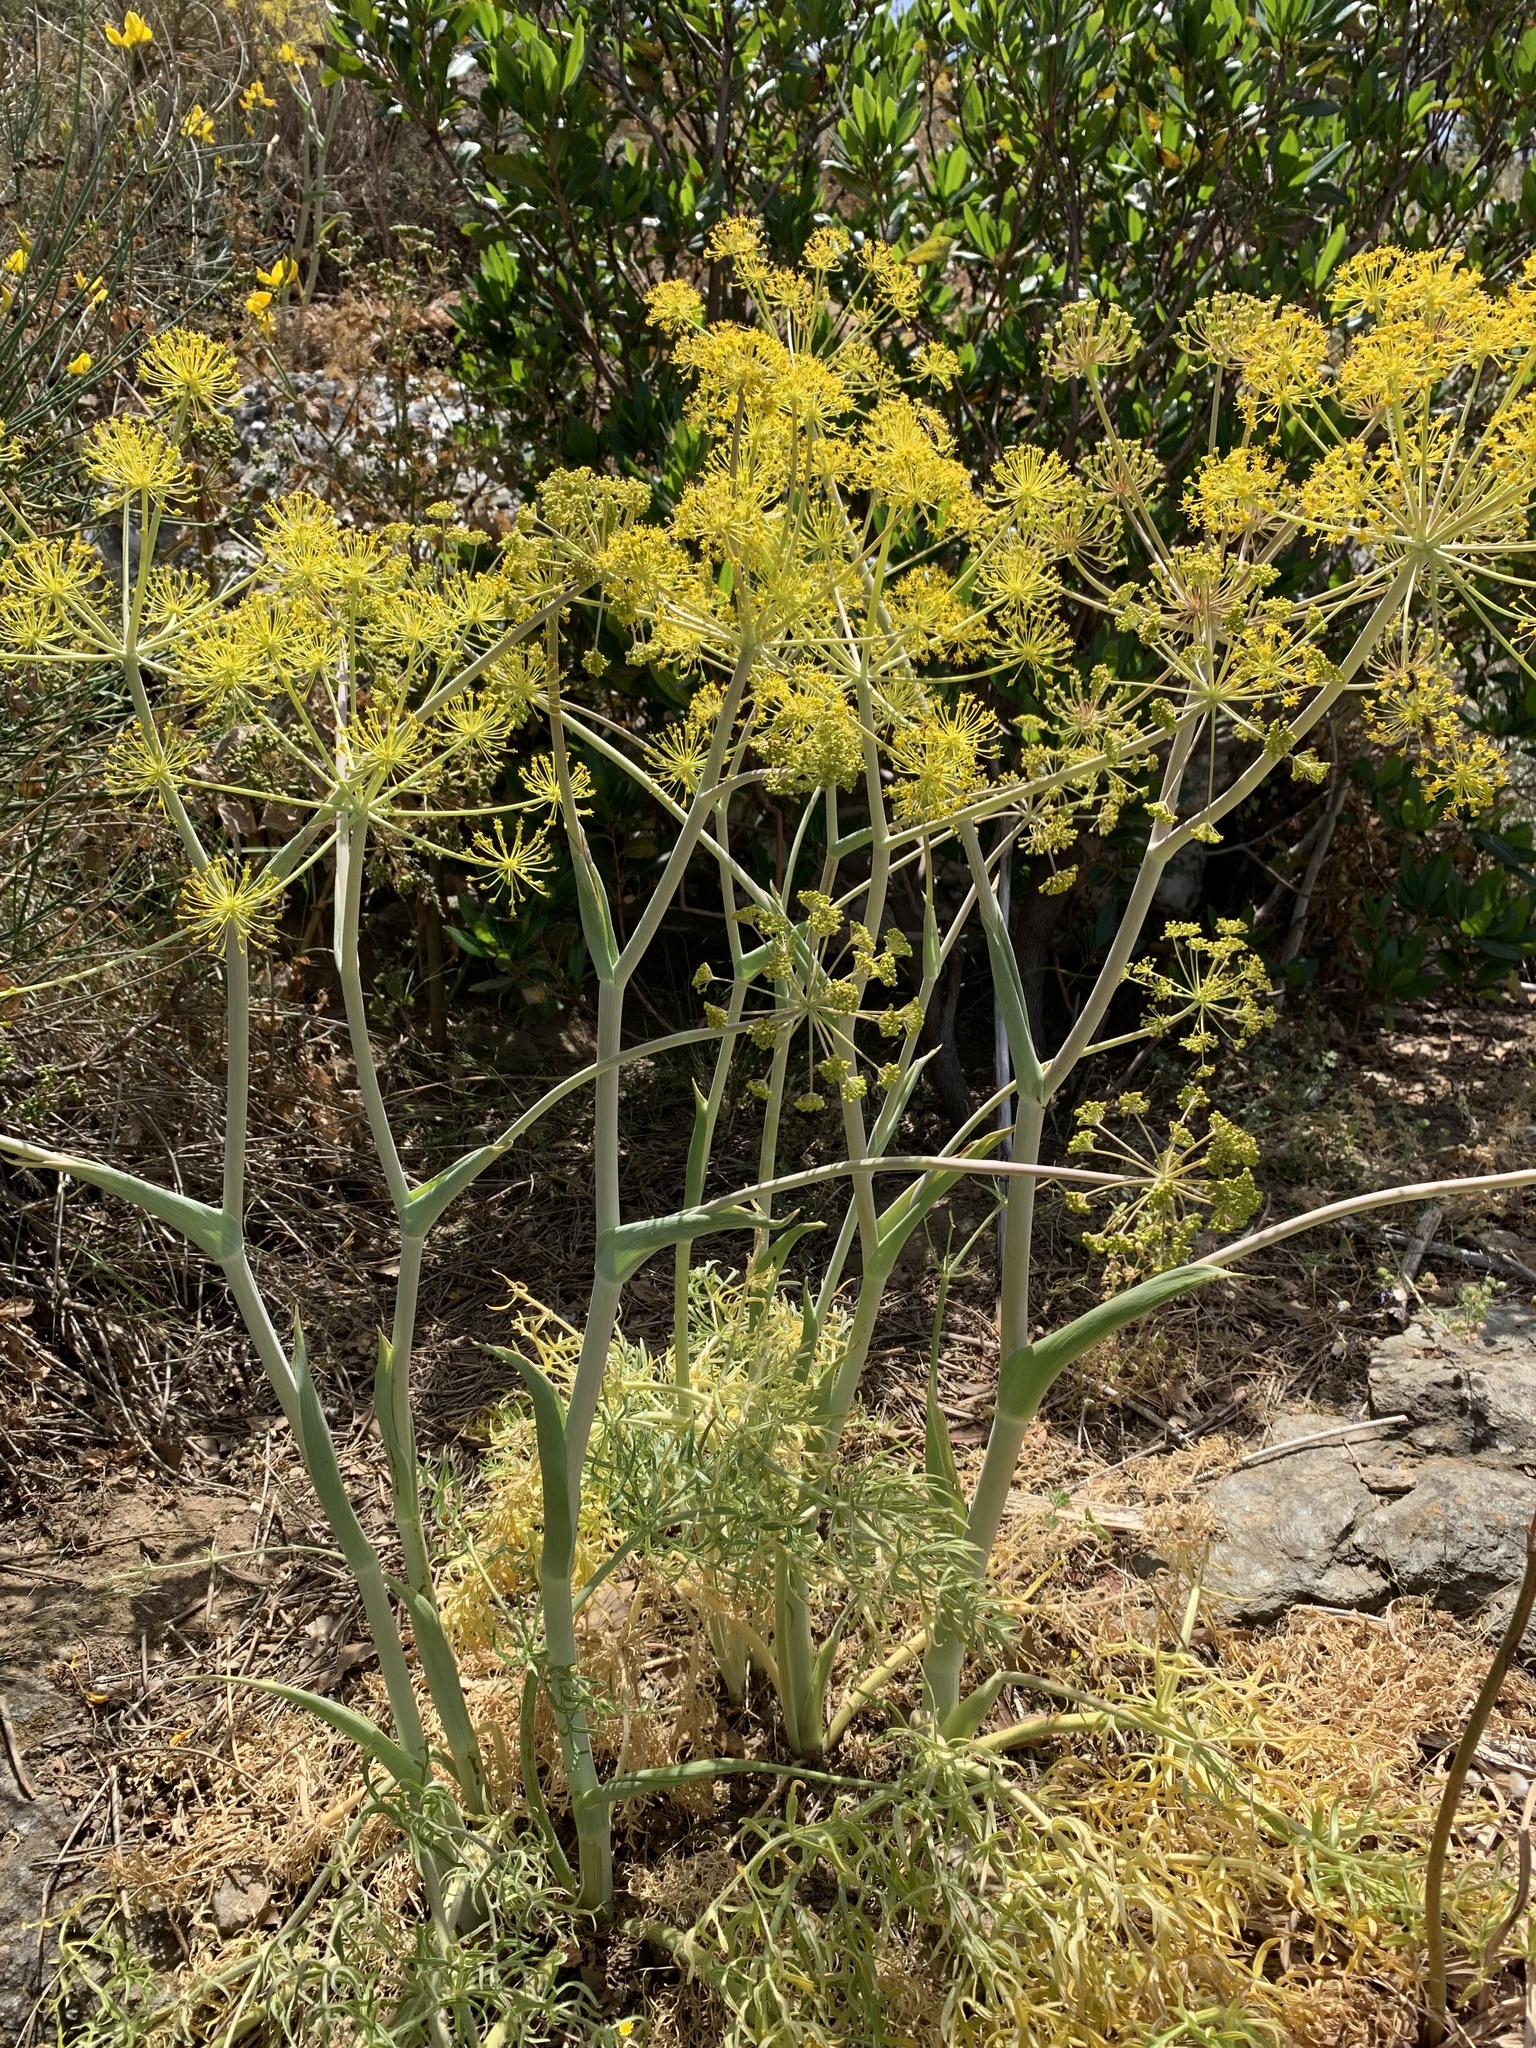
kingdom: Plantae
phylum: Tracheophyta
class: Magnoliopsida
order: Apiales
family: Apiaceae
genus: Thapsia
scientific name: Thapsia garganica
